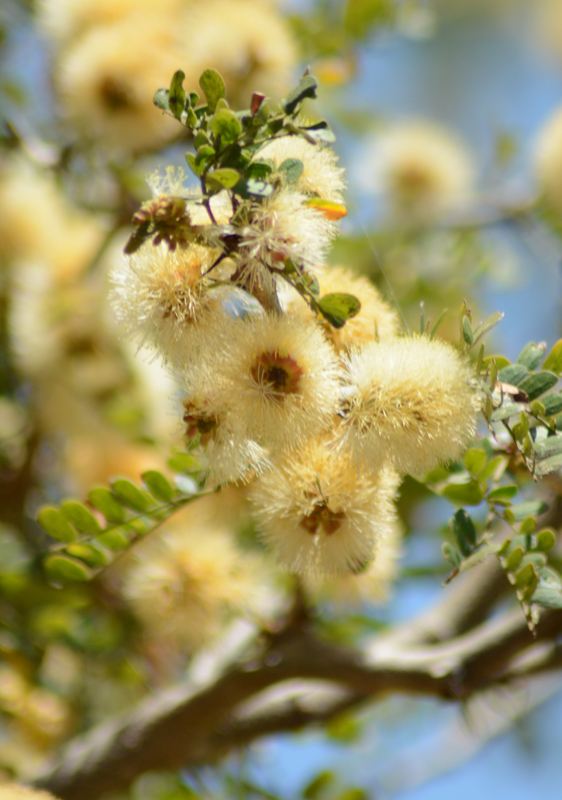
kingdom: Plantae
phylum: Tracheophyta
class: Magnoliopsida
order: Fabales
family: Fabaceae
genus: Chloroleucon
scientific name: Chloroleucon mangense
